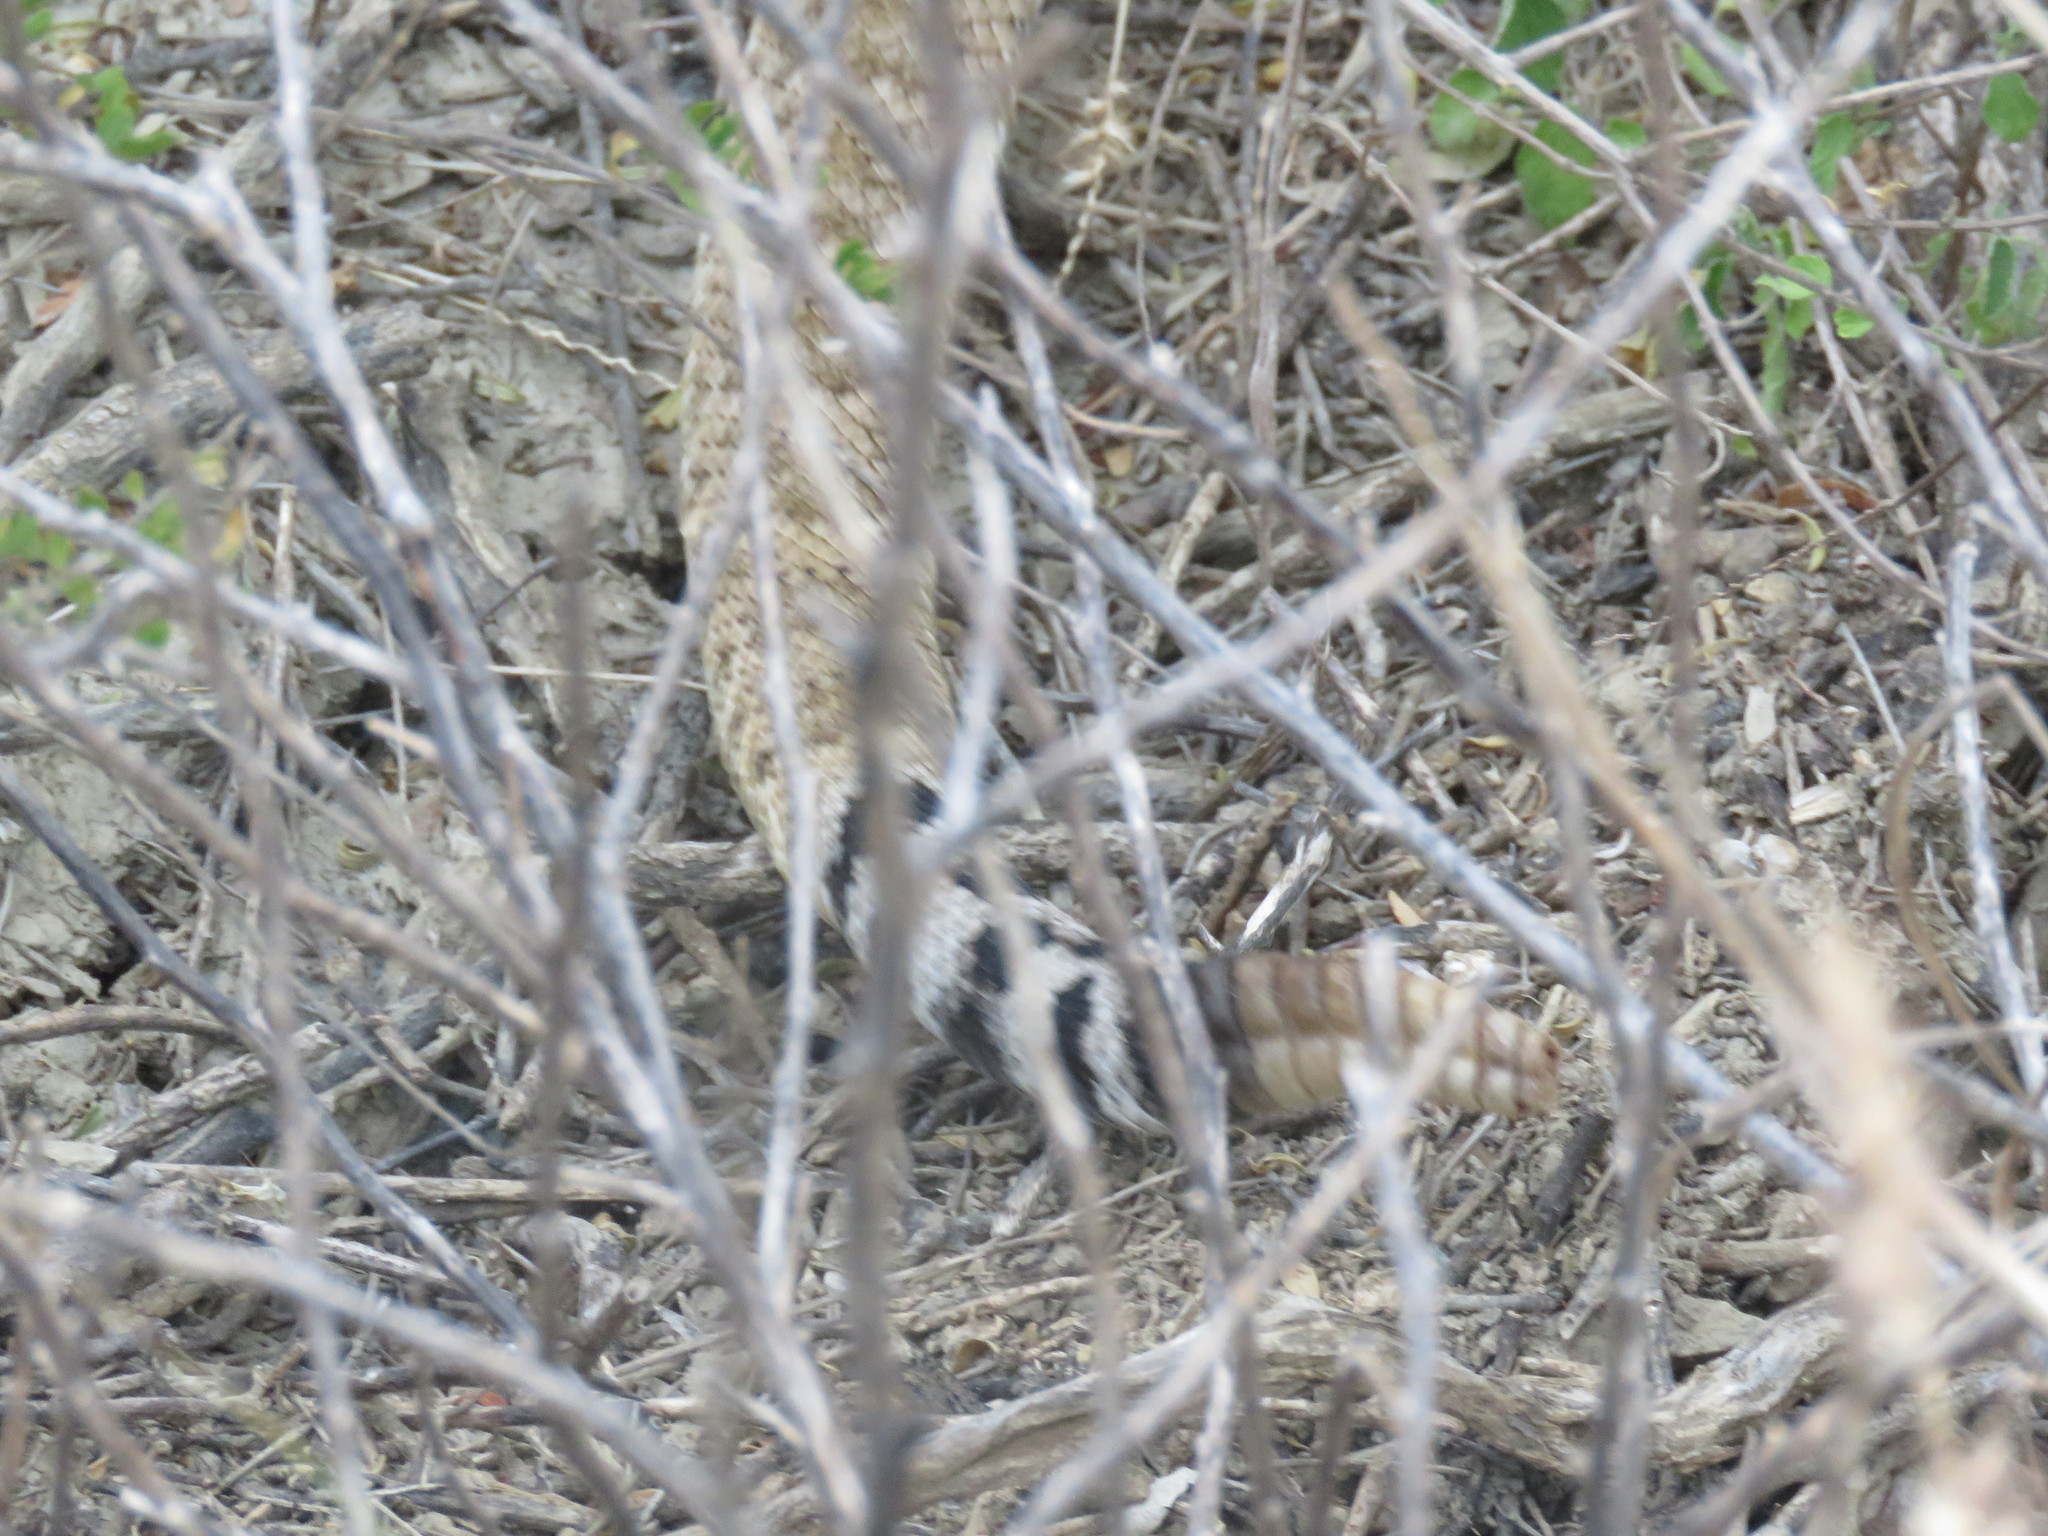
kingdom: Animalia
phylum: Chordata
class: Squamata
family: Viperidae
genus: Crotalus
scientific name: Crotalus atrox
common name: Western diamond-backed rattlesnake
